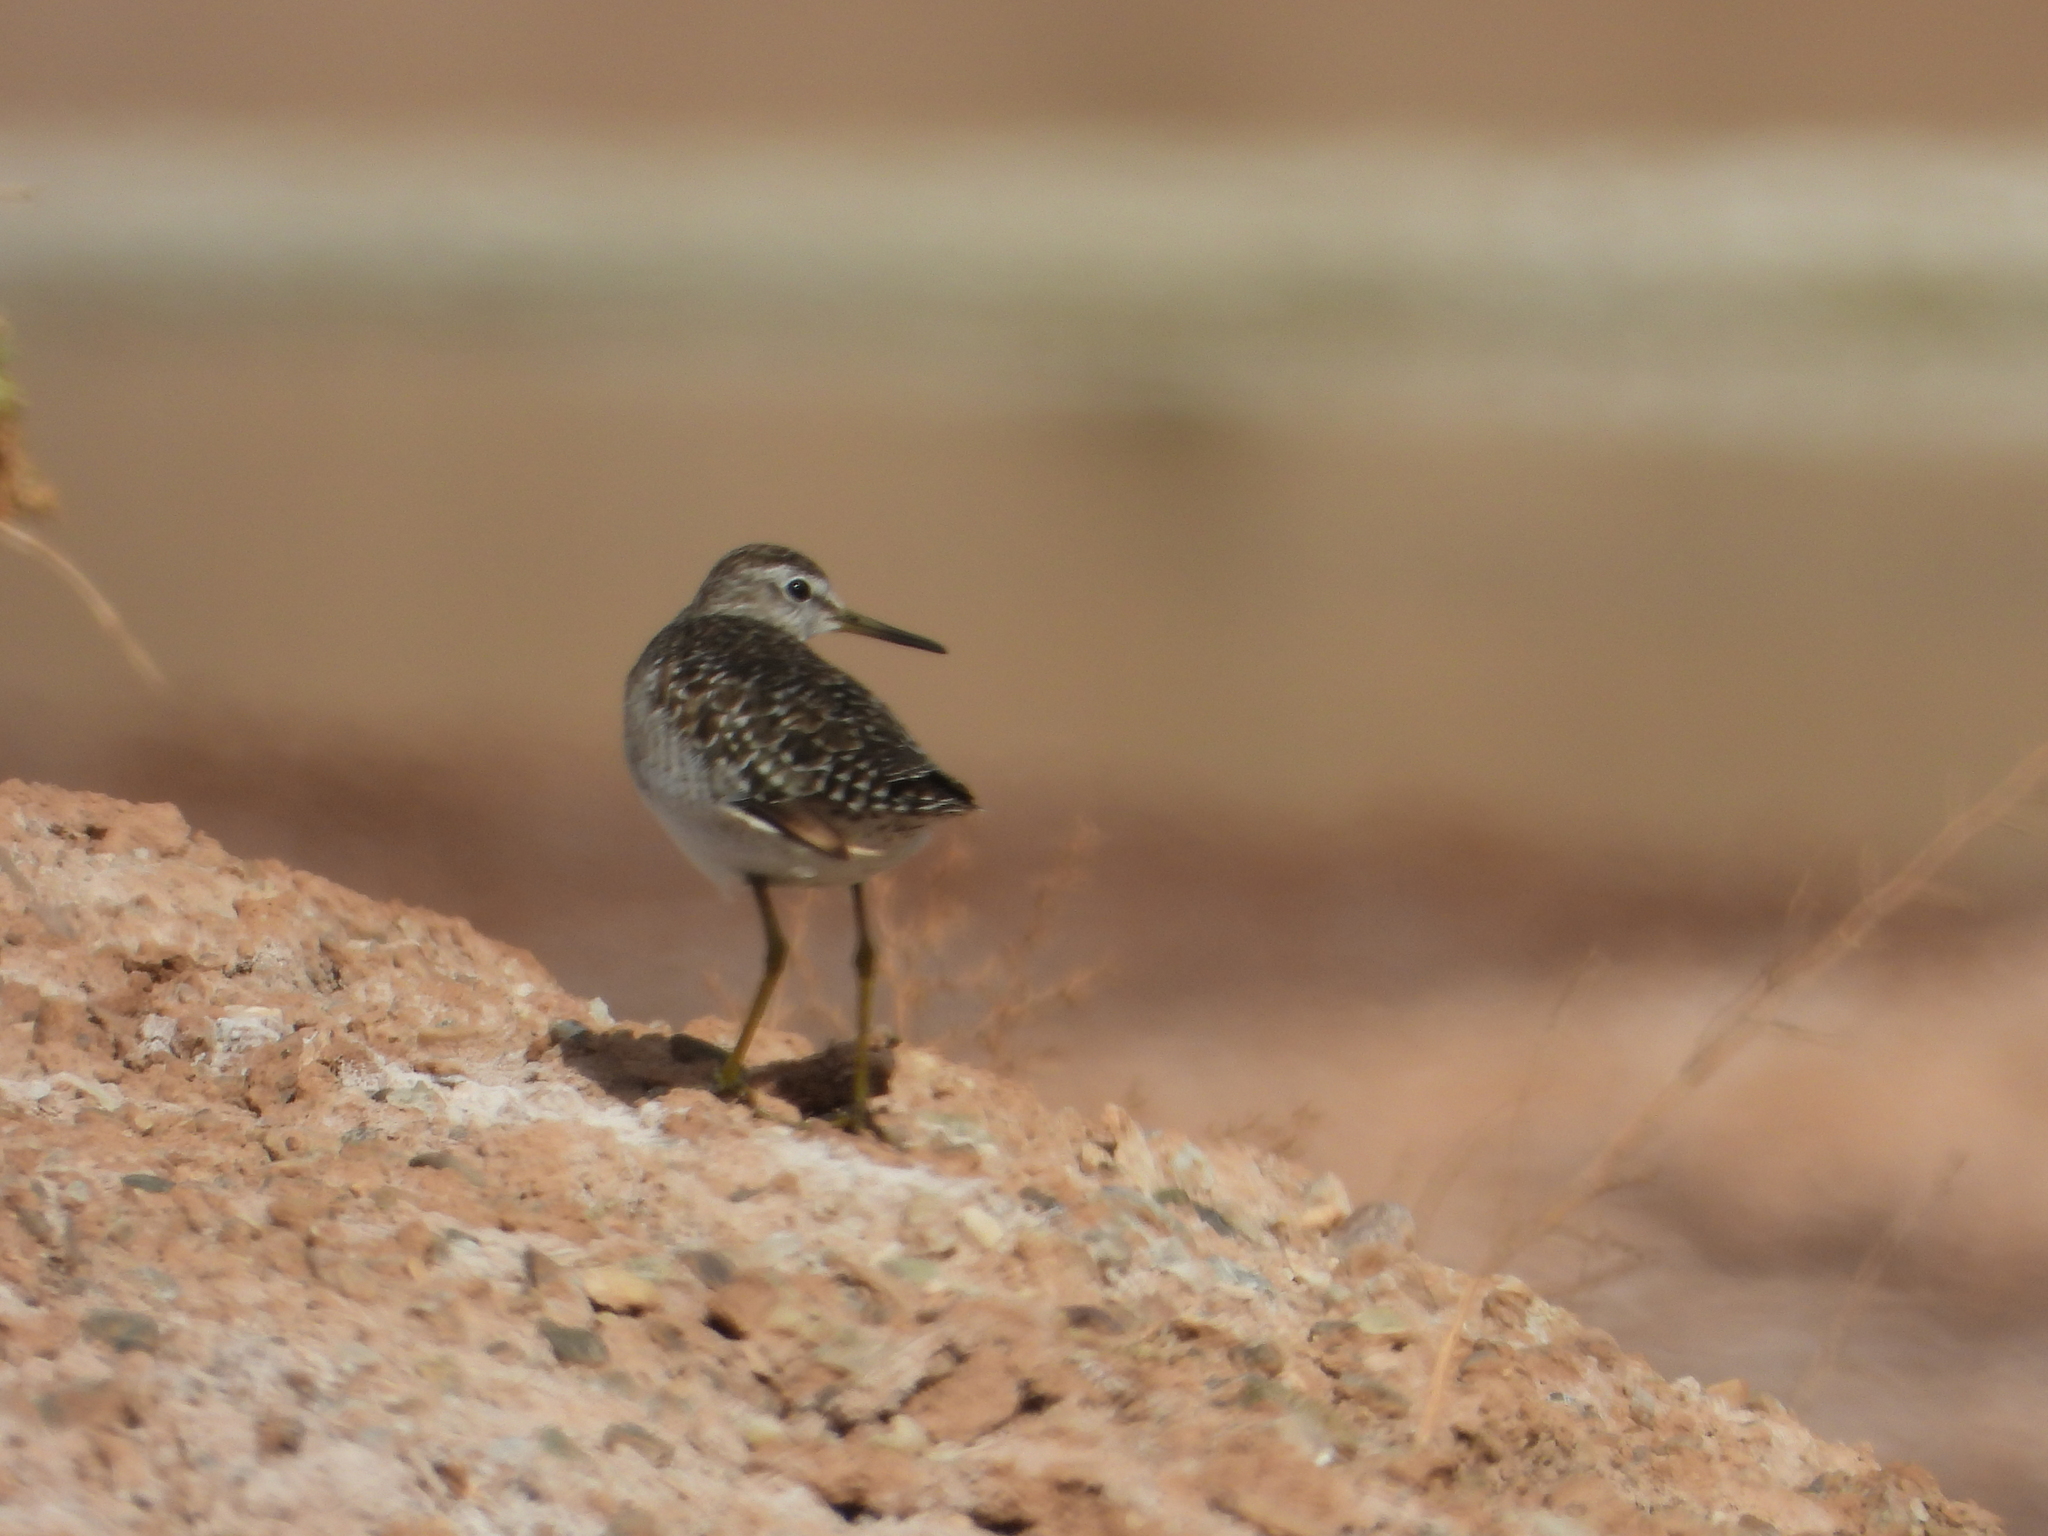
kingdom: Animalia
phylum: Chordata
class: Aves
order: Charadriiformes
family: Scolopacidae
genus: Tringa
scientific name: Tringa glareola
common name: Wood sandpiper
